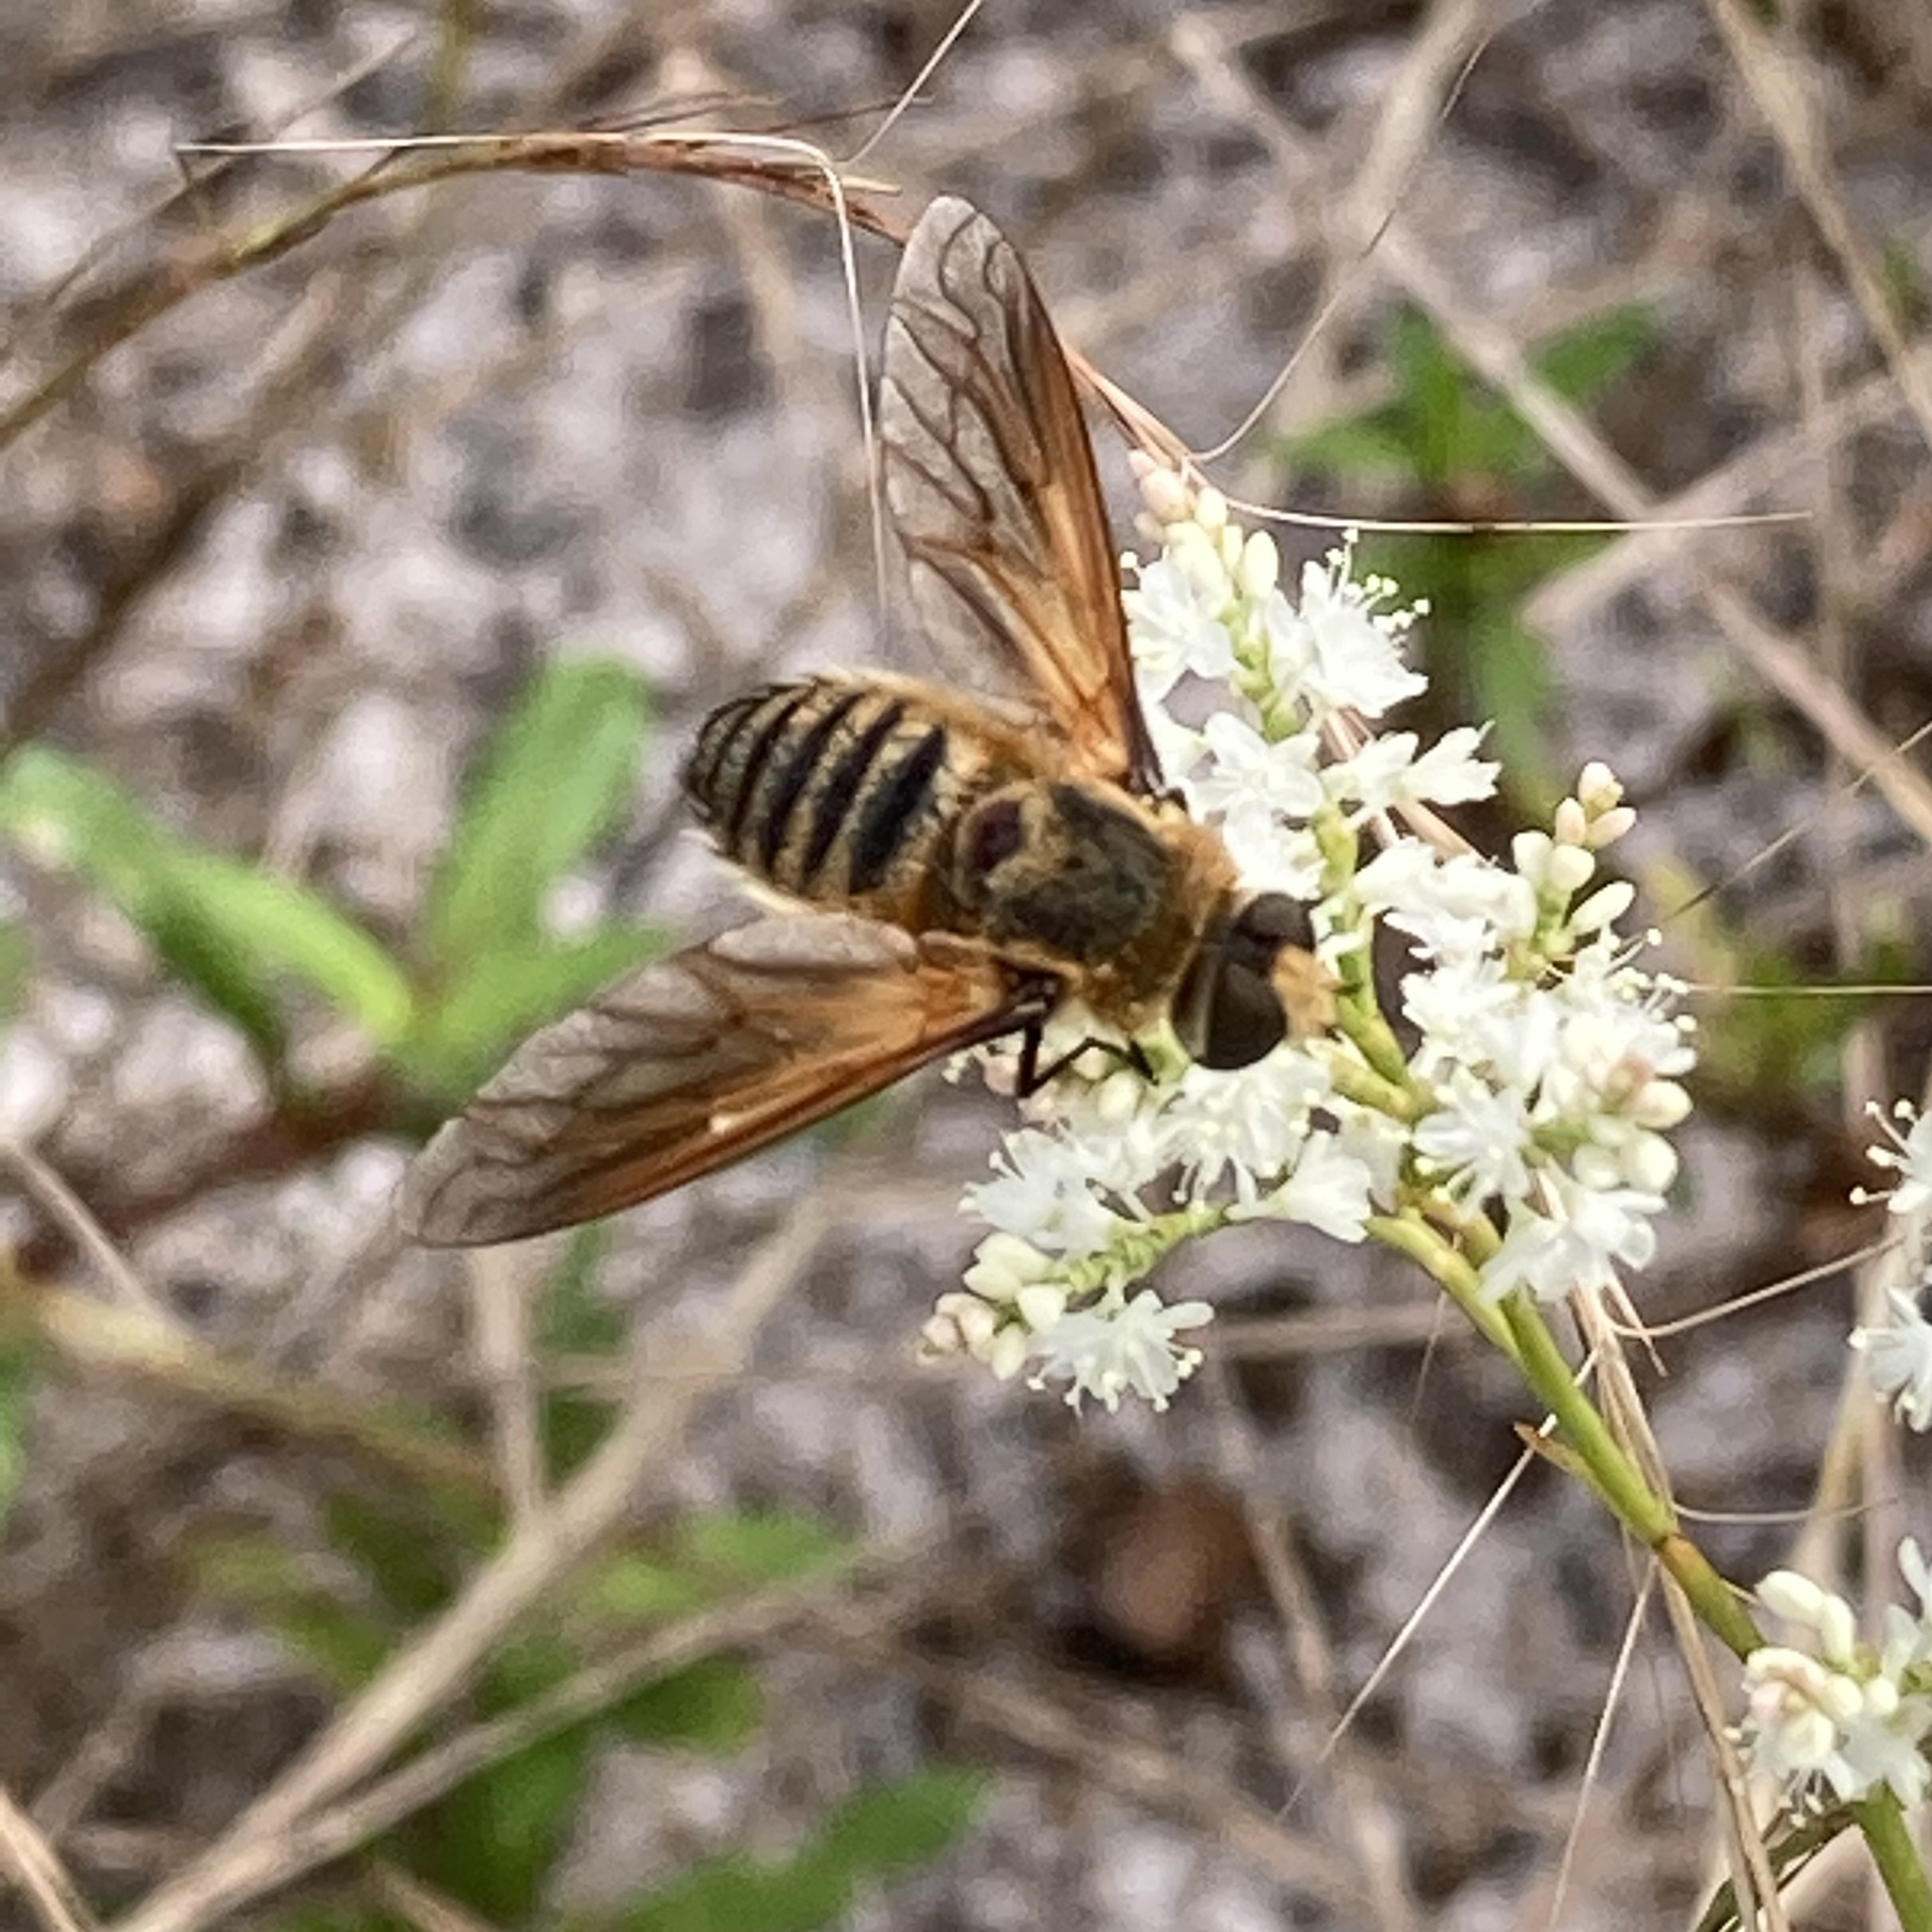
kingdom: Animalia
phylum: Arthropoda
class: Insecta
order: Diptera
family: Bombyliidae
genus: Poecilanthrax
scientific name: Poecilanthrax lucifer
